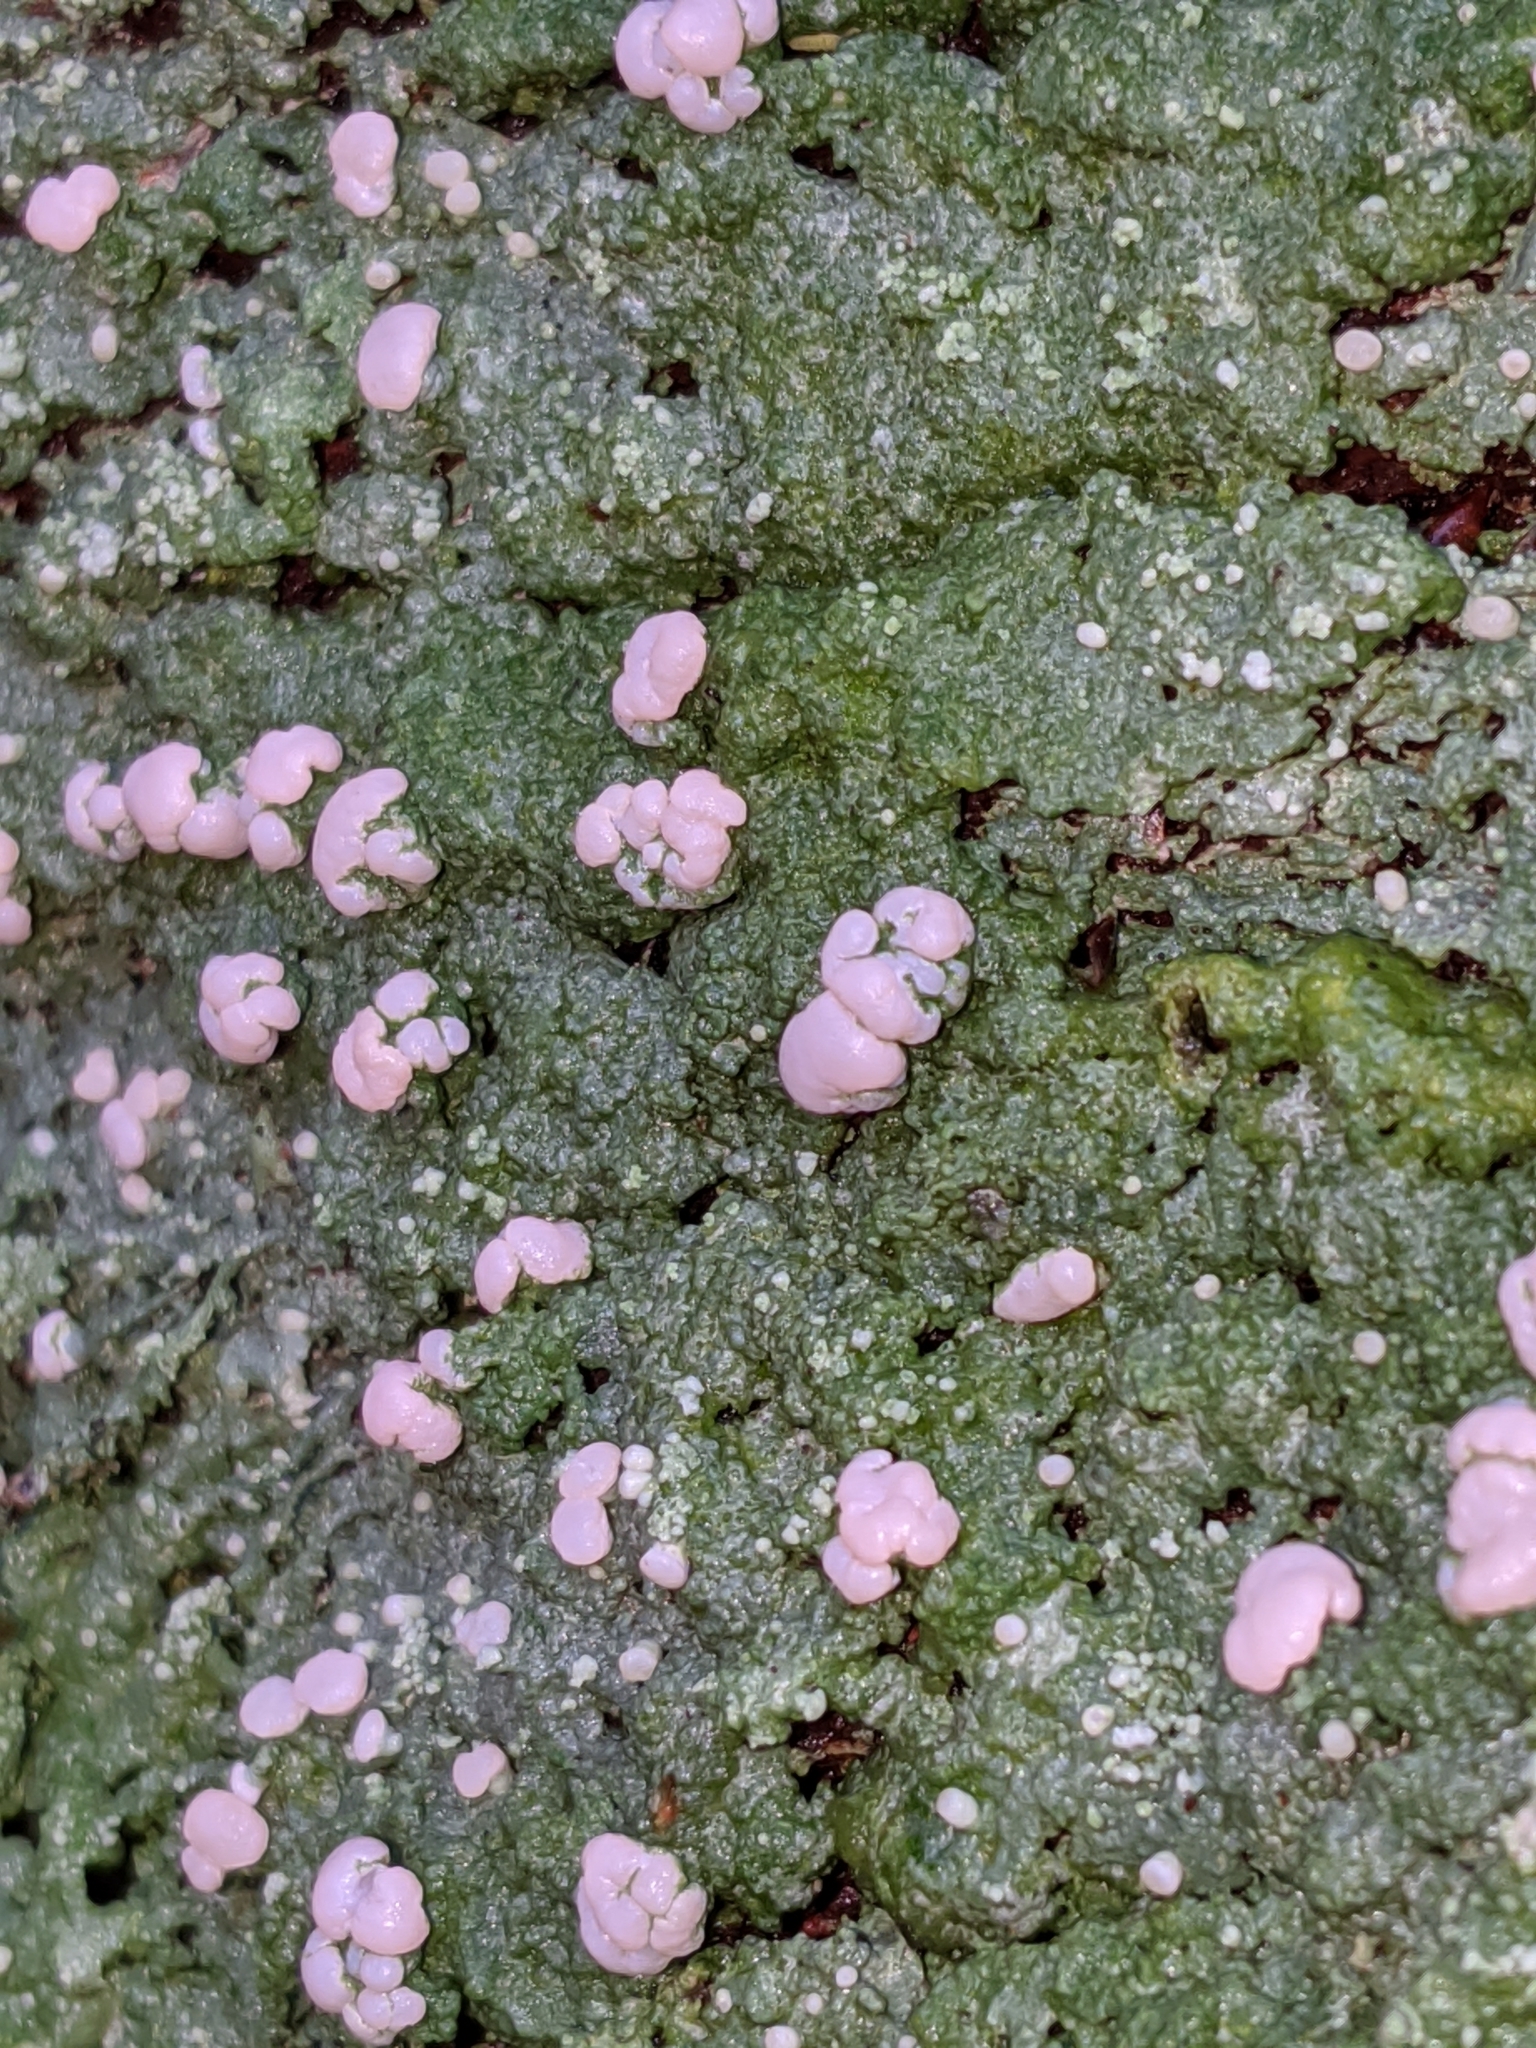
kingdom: Fungi
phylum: Ascomycota
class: Lecanoromycetes
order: Pertusariales
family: Icmadophilaceae
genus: Icmadophila
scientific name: Icmadophila ericetorum
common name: Candy lichen
